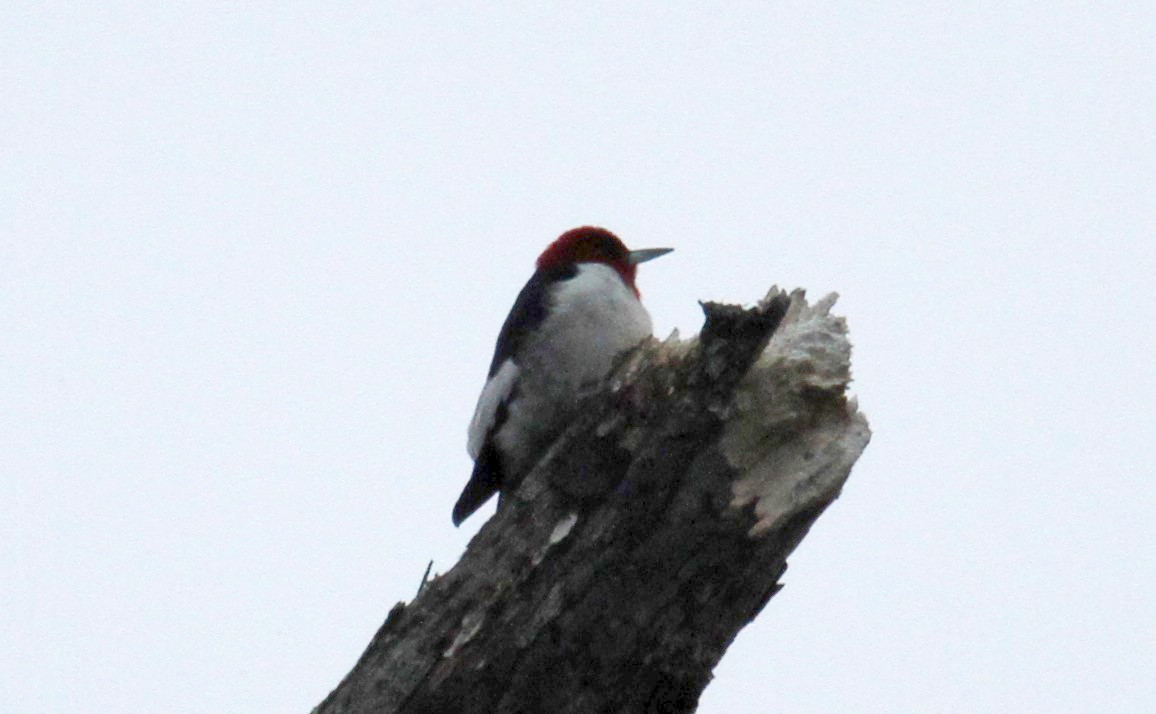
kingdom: Animalia
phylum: Chordata
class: Aves
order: Piciformes
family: Picidae
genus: Melanerpes
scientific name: Melanerpes erythrocephalus
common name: Red-headed woodpecker
